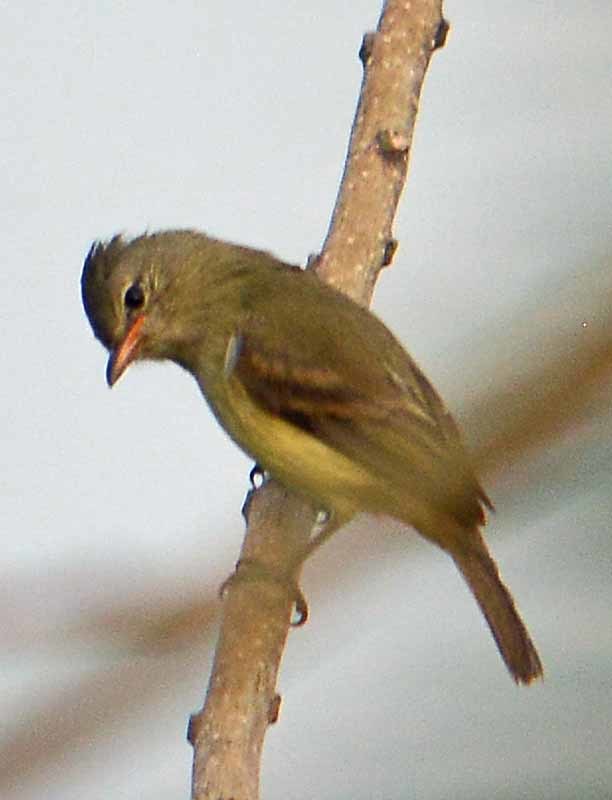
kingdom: Animalia
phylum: Chordata
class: Aves
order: Passeriformes
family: Tyrannidae
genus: Camptostoma
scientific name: Camptostoma imberbe
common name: Northern beardless-tyrannulet
